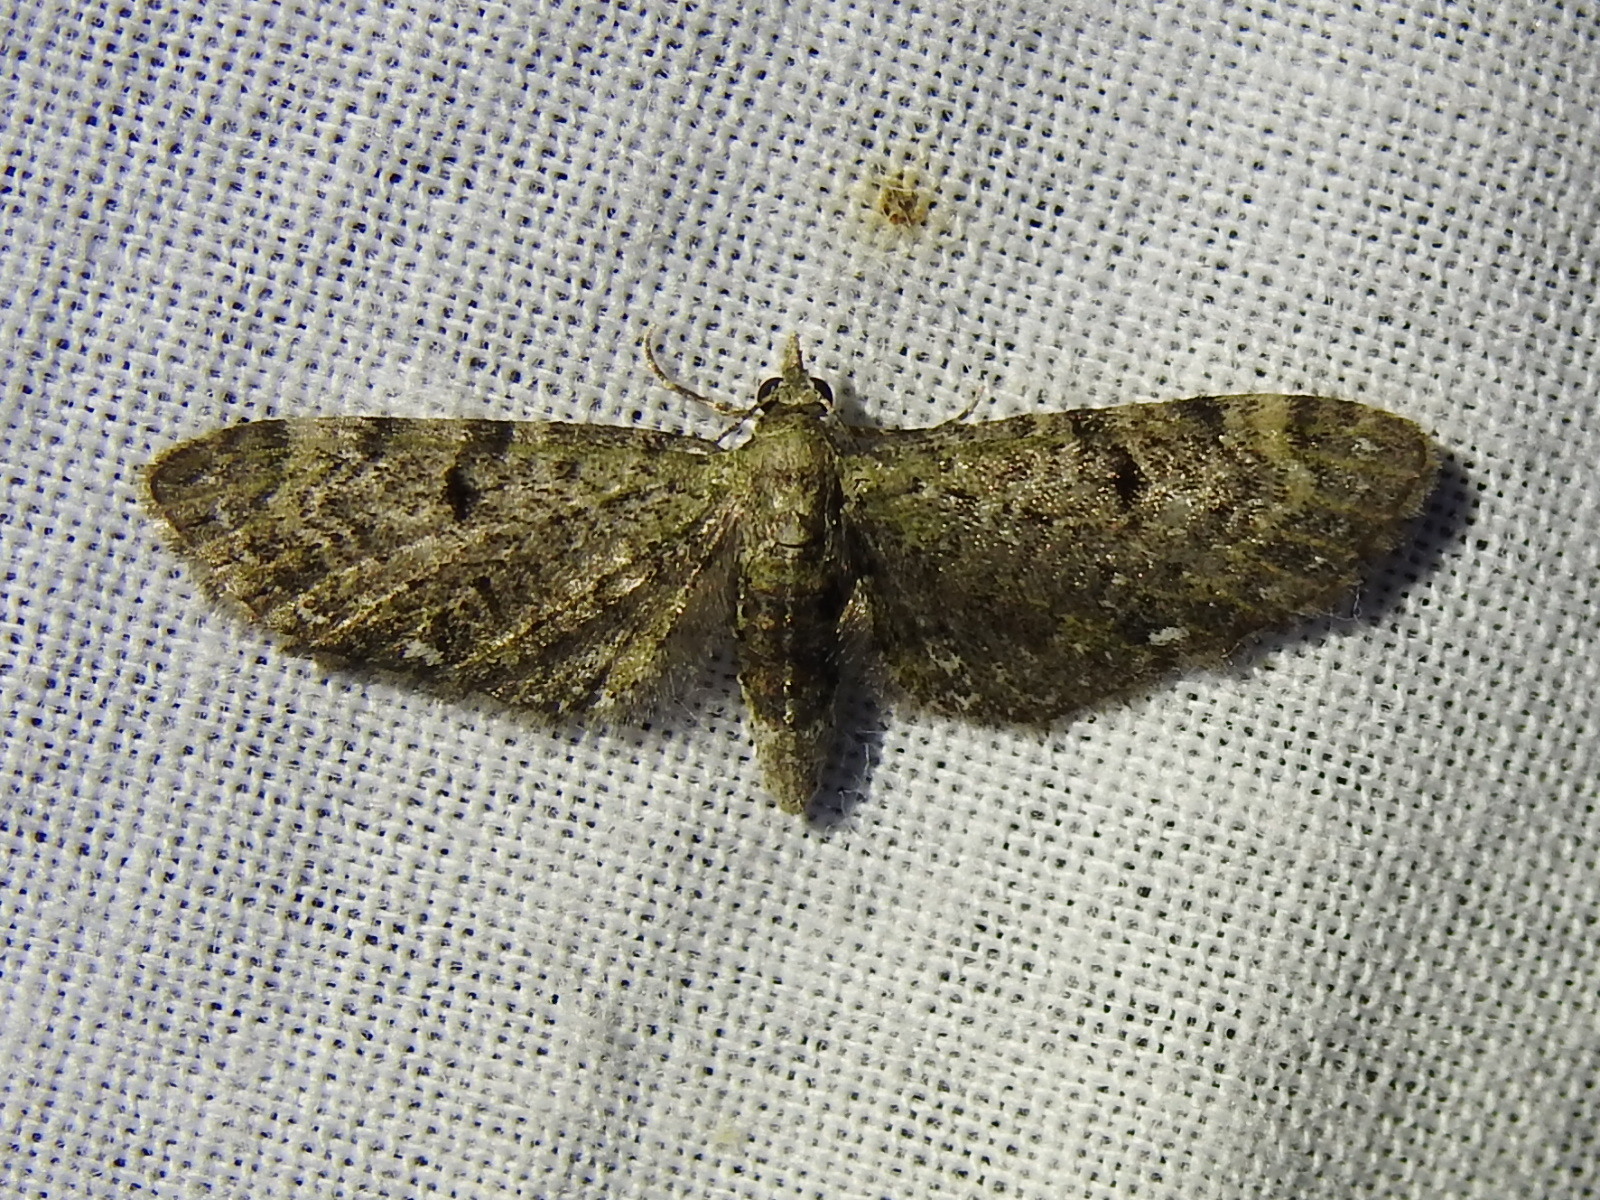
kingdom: Animalia
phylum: Arthropoda
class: Insecta
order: Lepidoptera
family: Geometridae
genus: Eupithecia
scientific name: Eupithecia miserulata
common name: Common eupithecia
